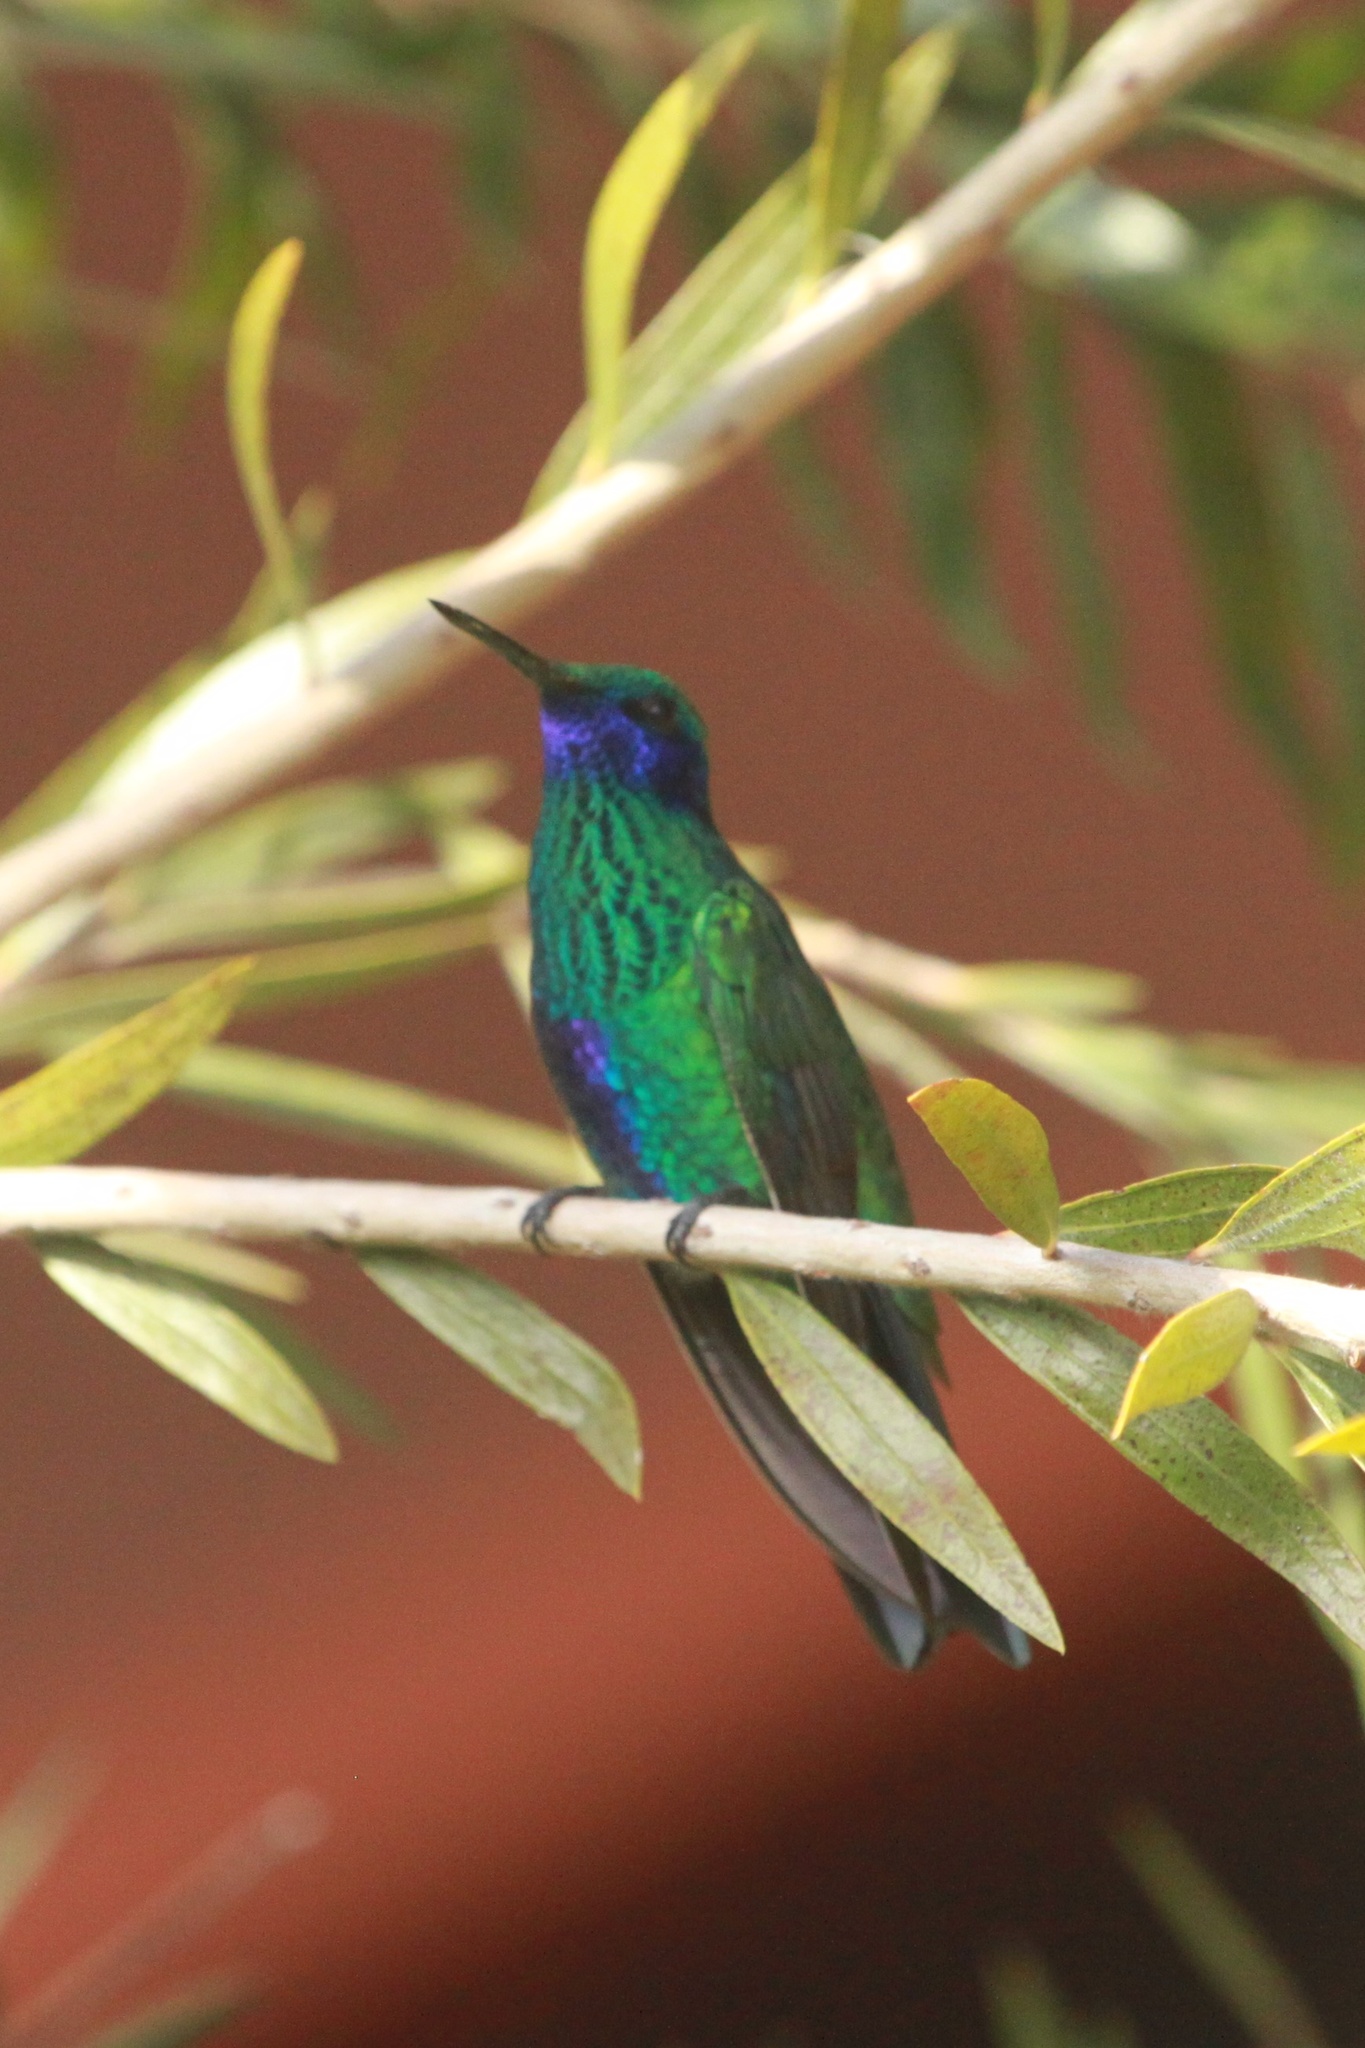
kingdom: Animalia
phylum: Chordata
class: Aves
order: Apodiformes
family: Trochilidae
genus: Colibri
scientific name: Colibri coruscans
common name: Sparkling violetear
